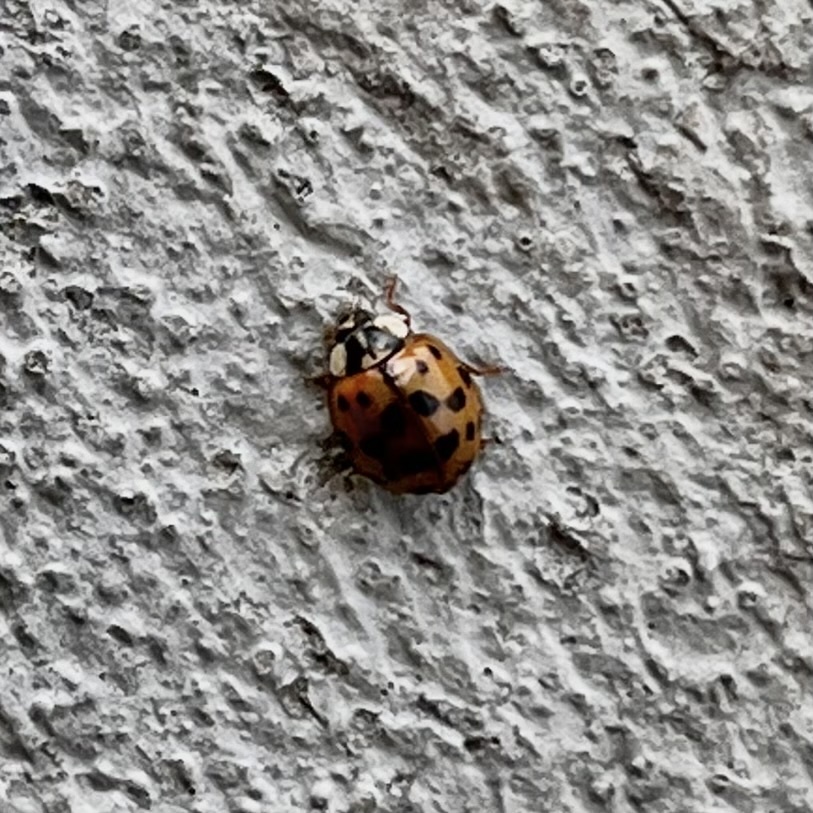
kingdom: Animalia
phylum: Arthropoda
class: Insecta
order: Coleoptera
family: Coccinellidae
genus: Harmonia
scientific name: Harmonia axyridis
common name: Harlequin ladybird
